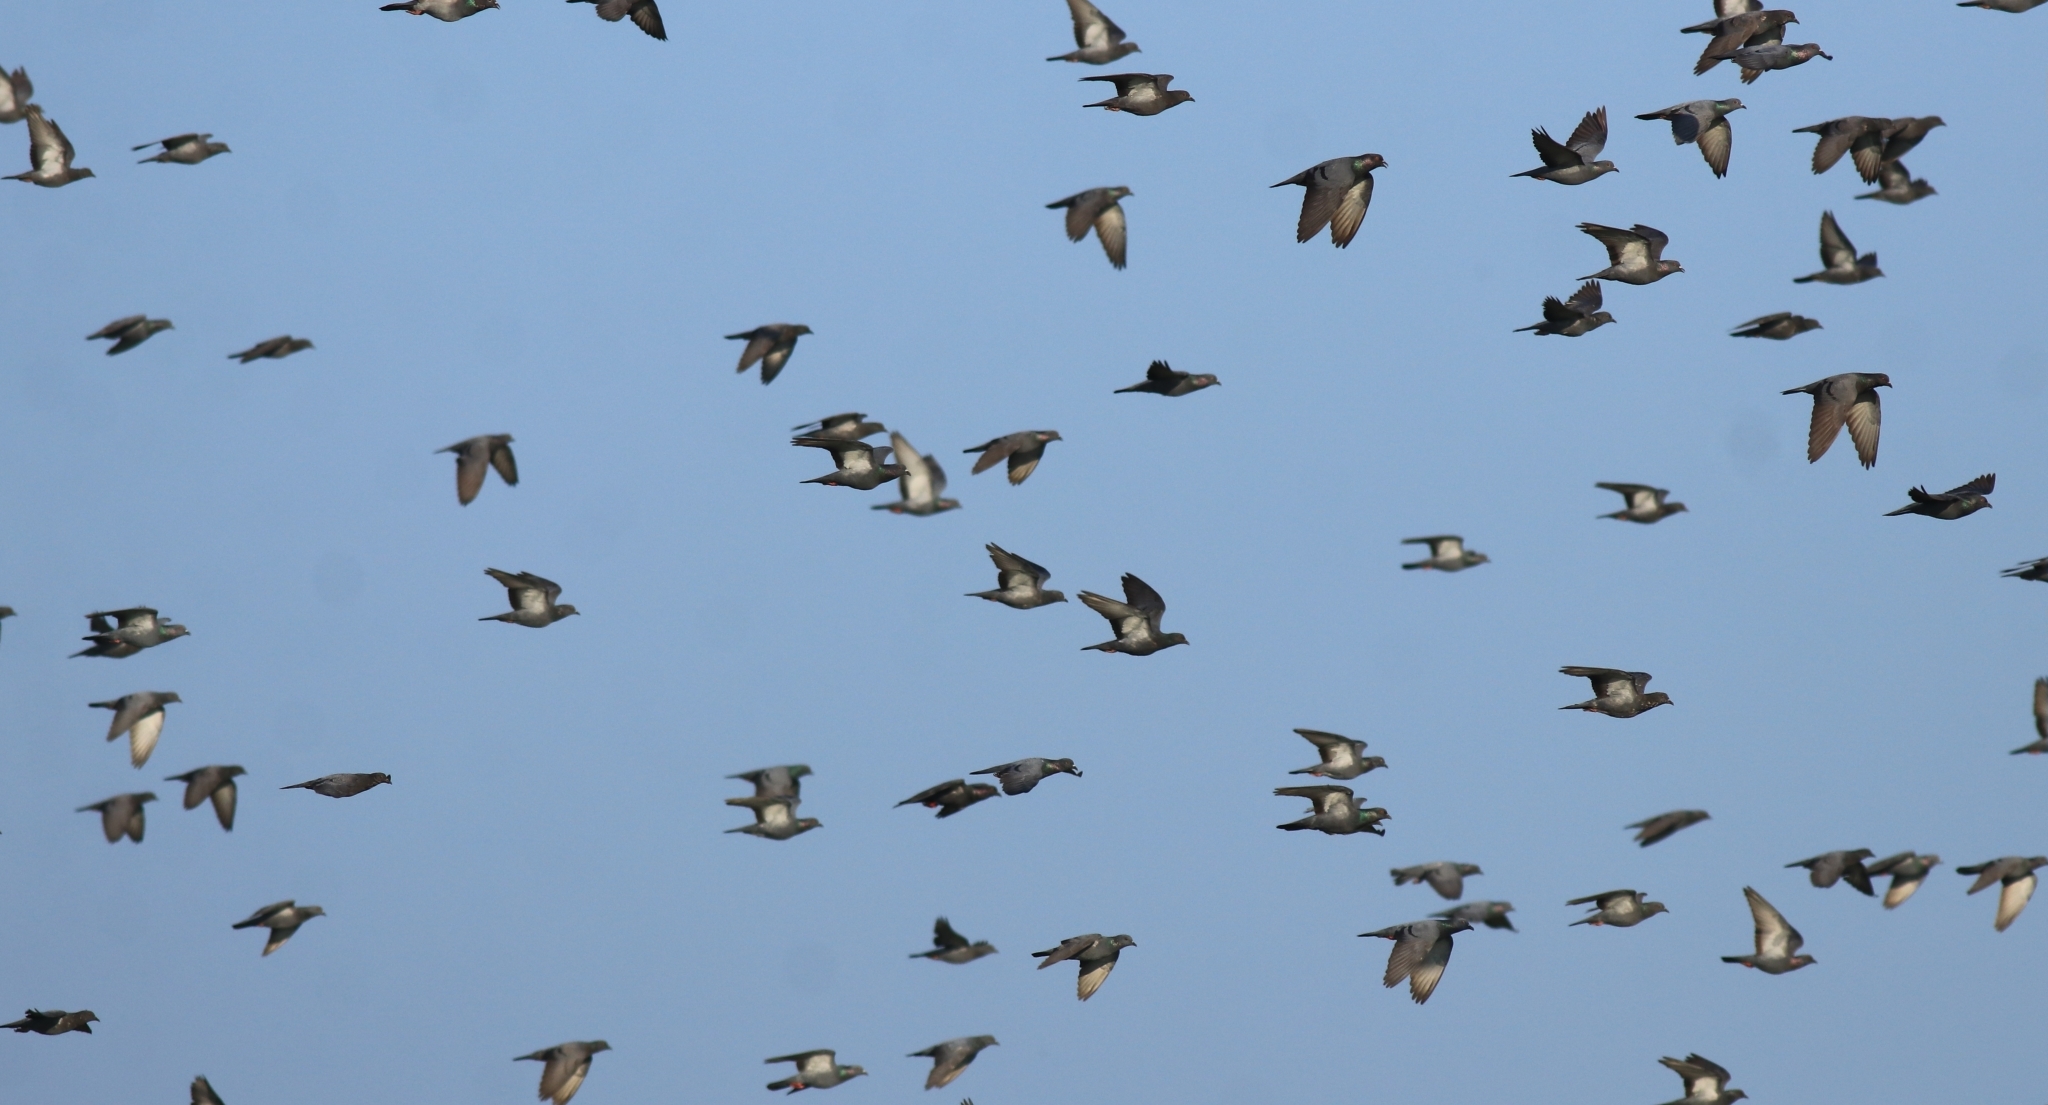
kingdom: Animalia
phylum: Chordata
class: Aves
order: Columbiformes
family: Columbidae
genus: Columba
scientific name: Columba livia
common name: Rock pigeon
